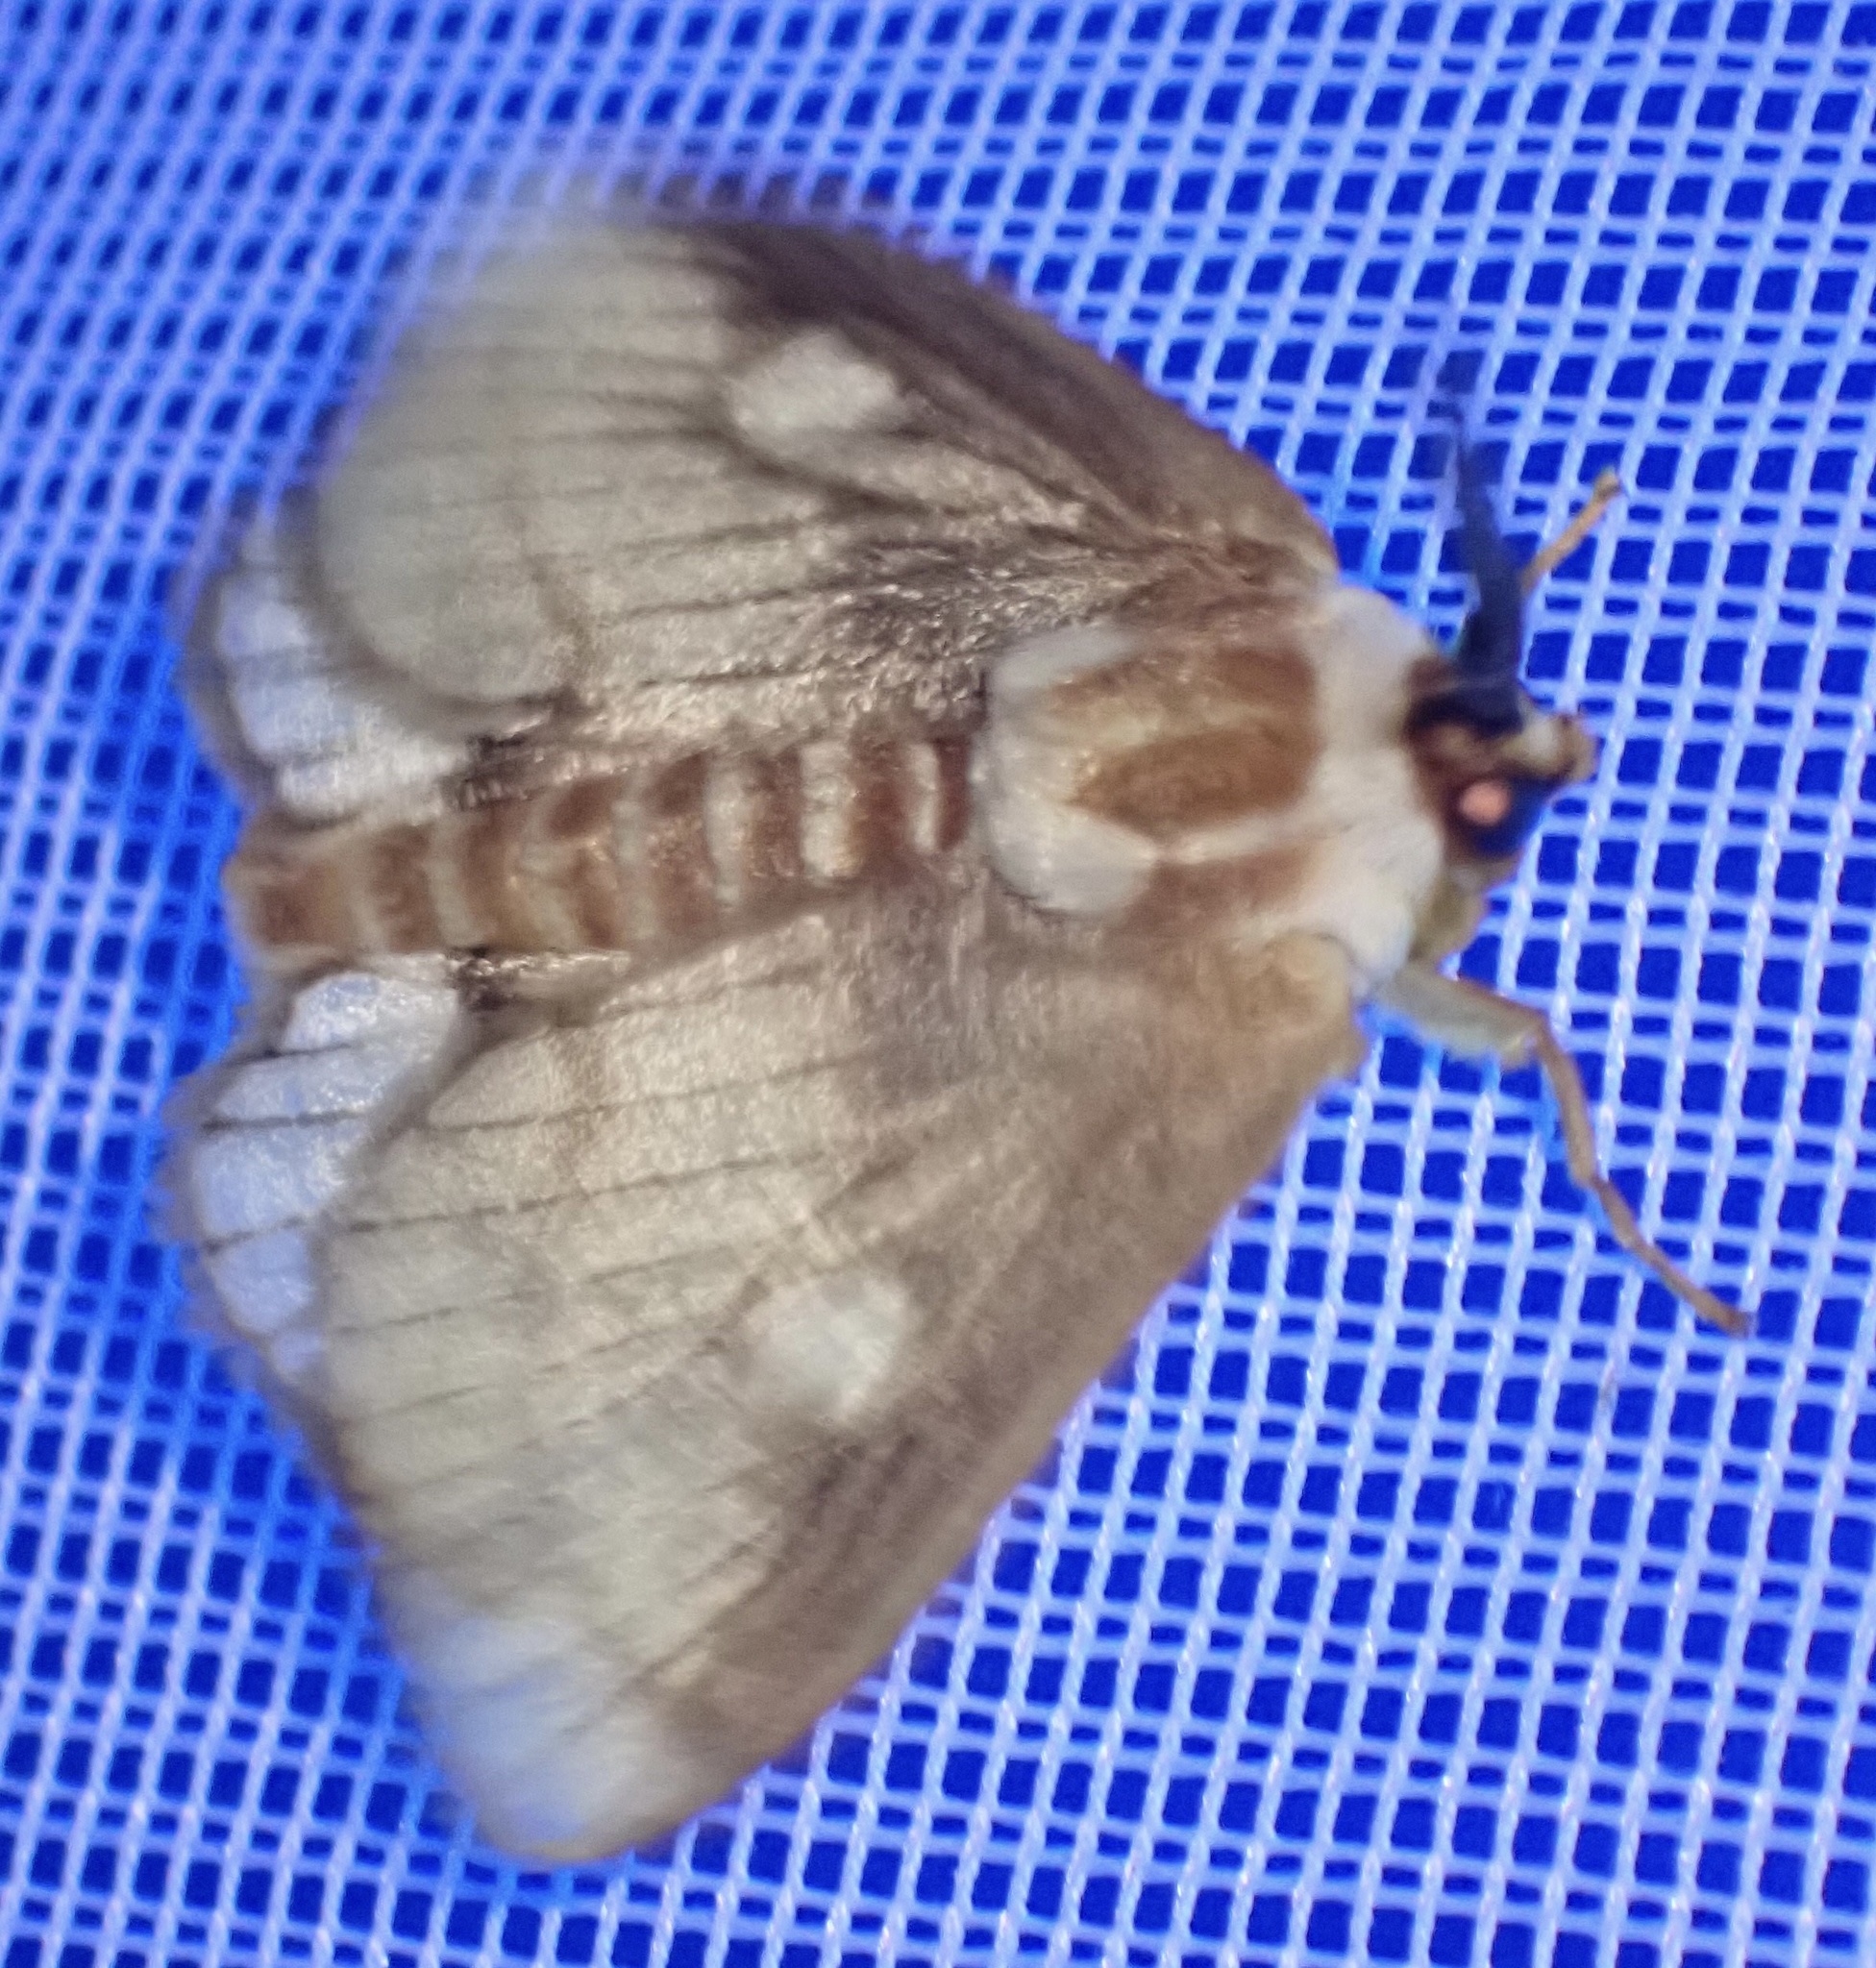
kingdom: Animalia
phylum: Arthropoda
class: Insecta
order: Lepidoptera
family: Limacodidae
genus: Strigivenifera
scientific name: Strigivenifera venata
